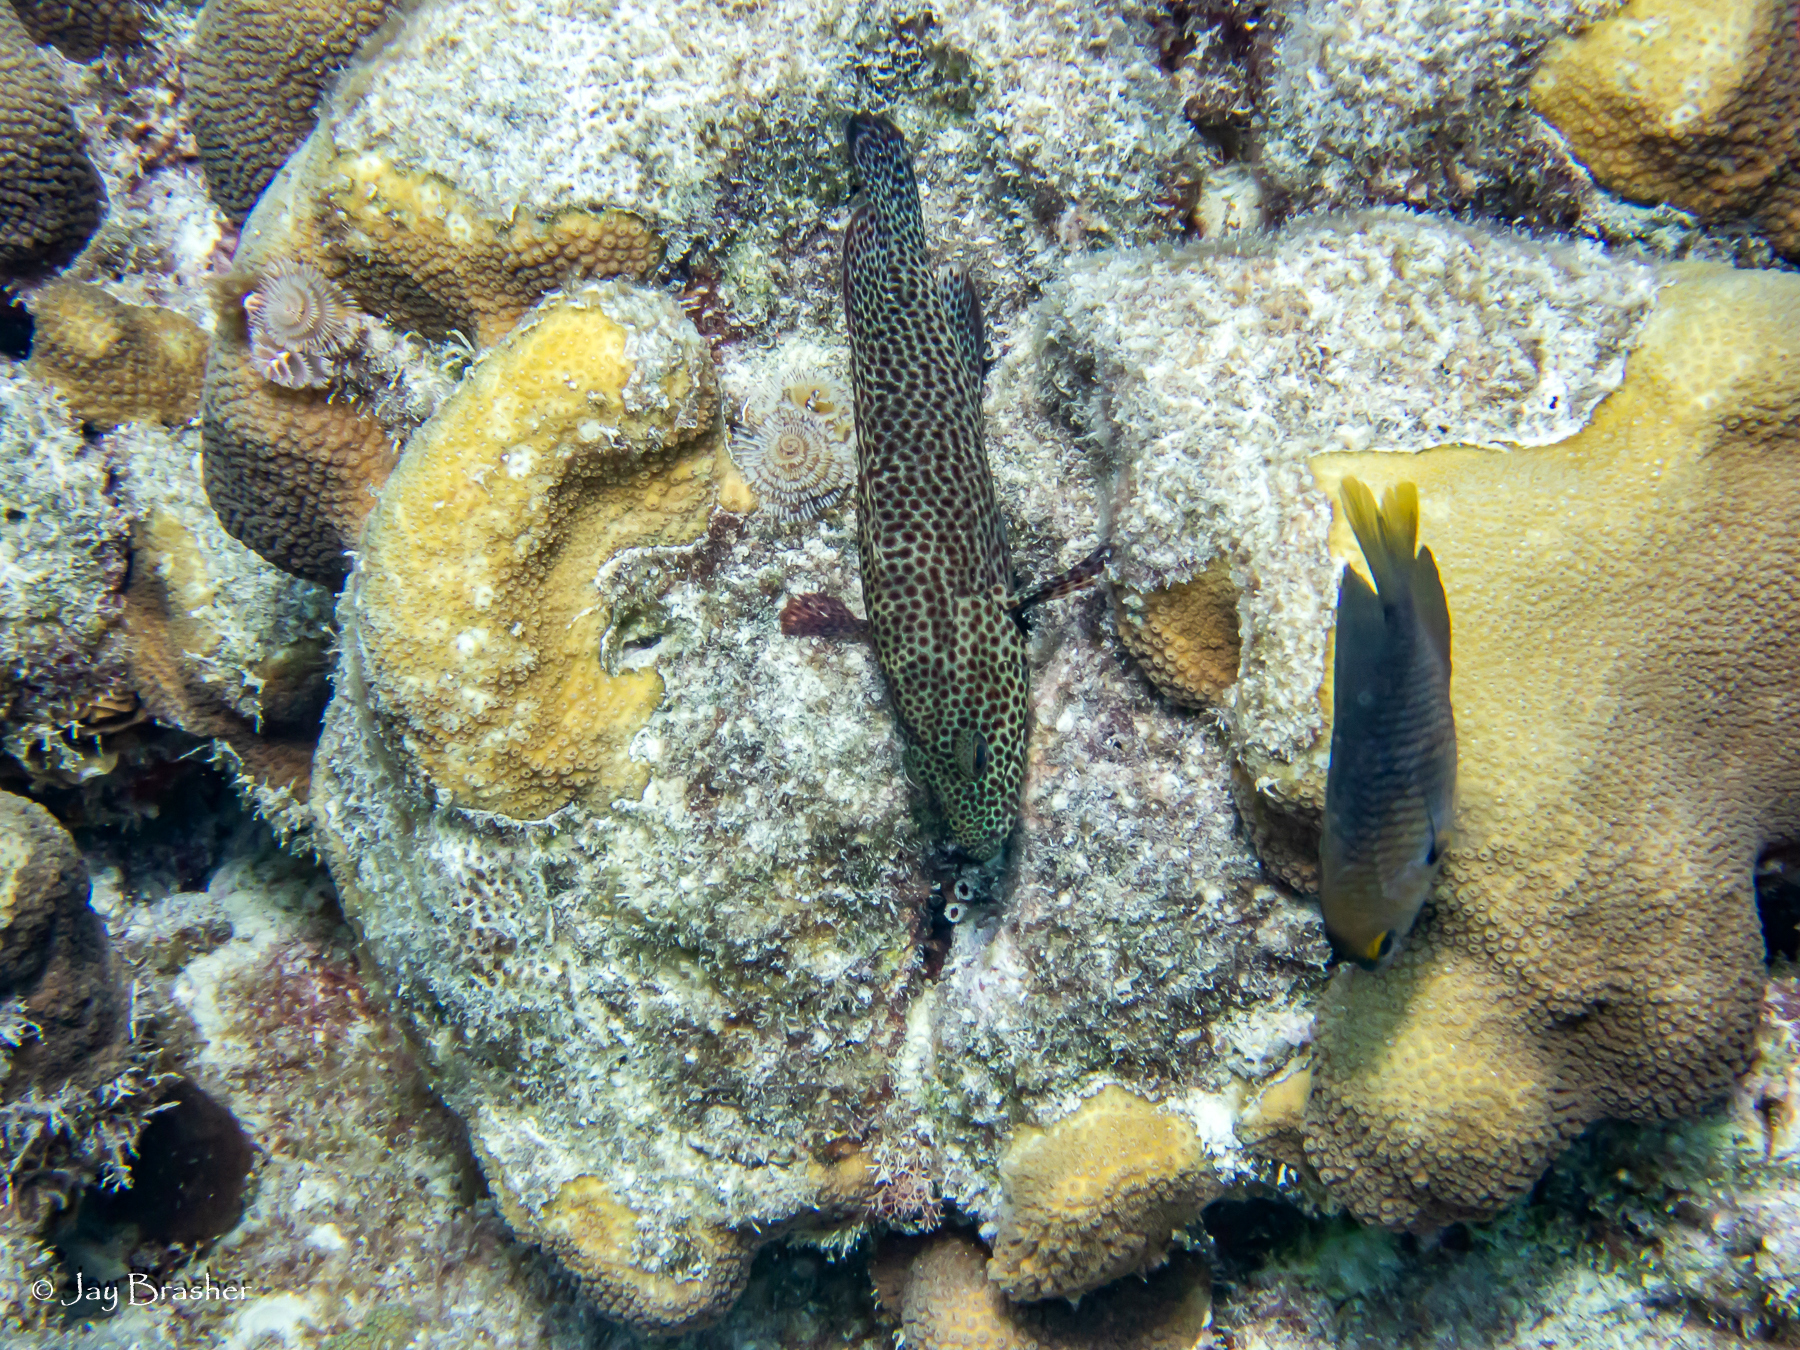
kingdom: Animalia
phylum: Annelida
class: Polychaeta
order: Sabellida
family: Serpulidae
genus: Spirobranchus
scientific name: Spirobranchus giganteus
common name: Christmas tree worm
